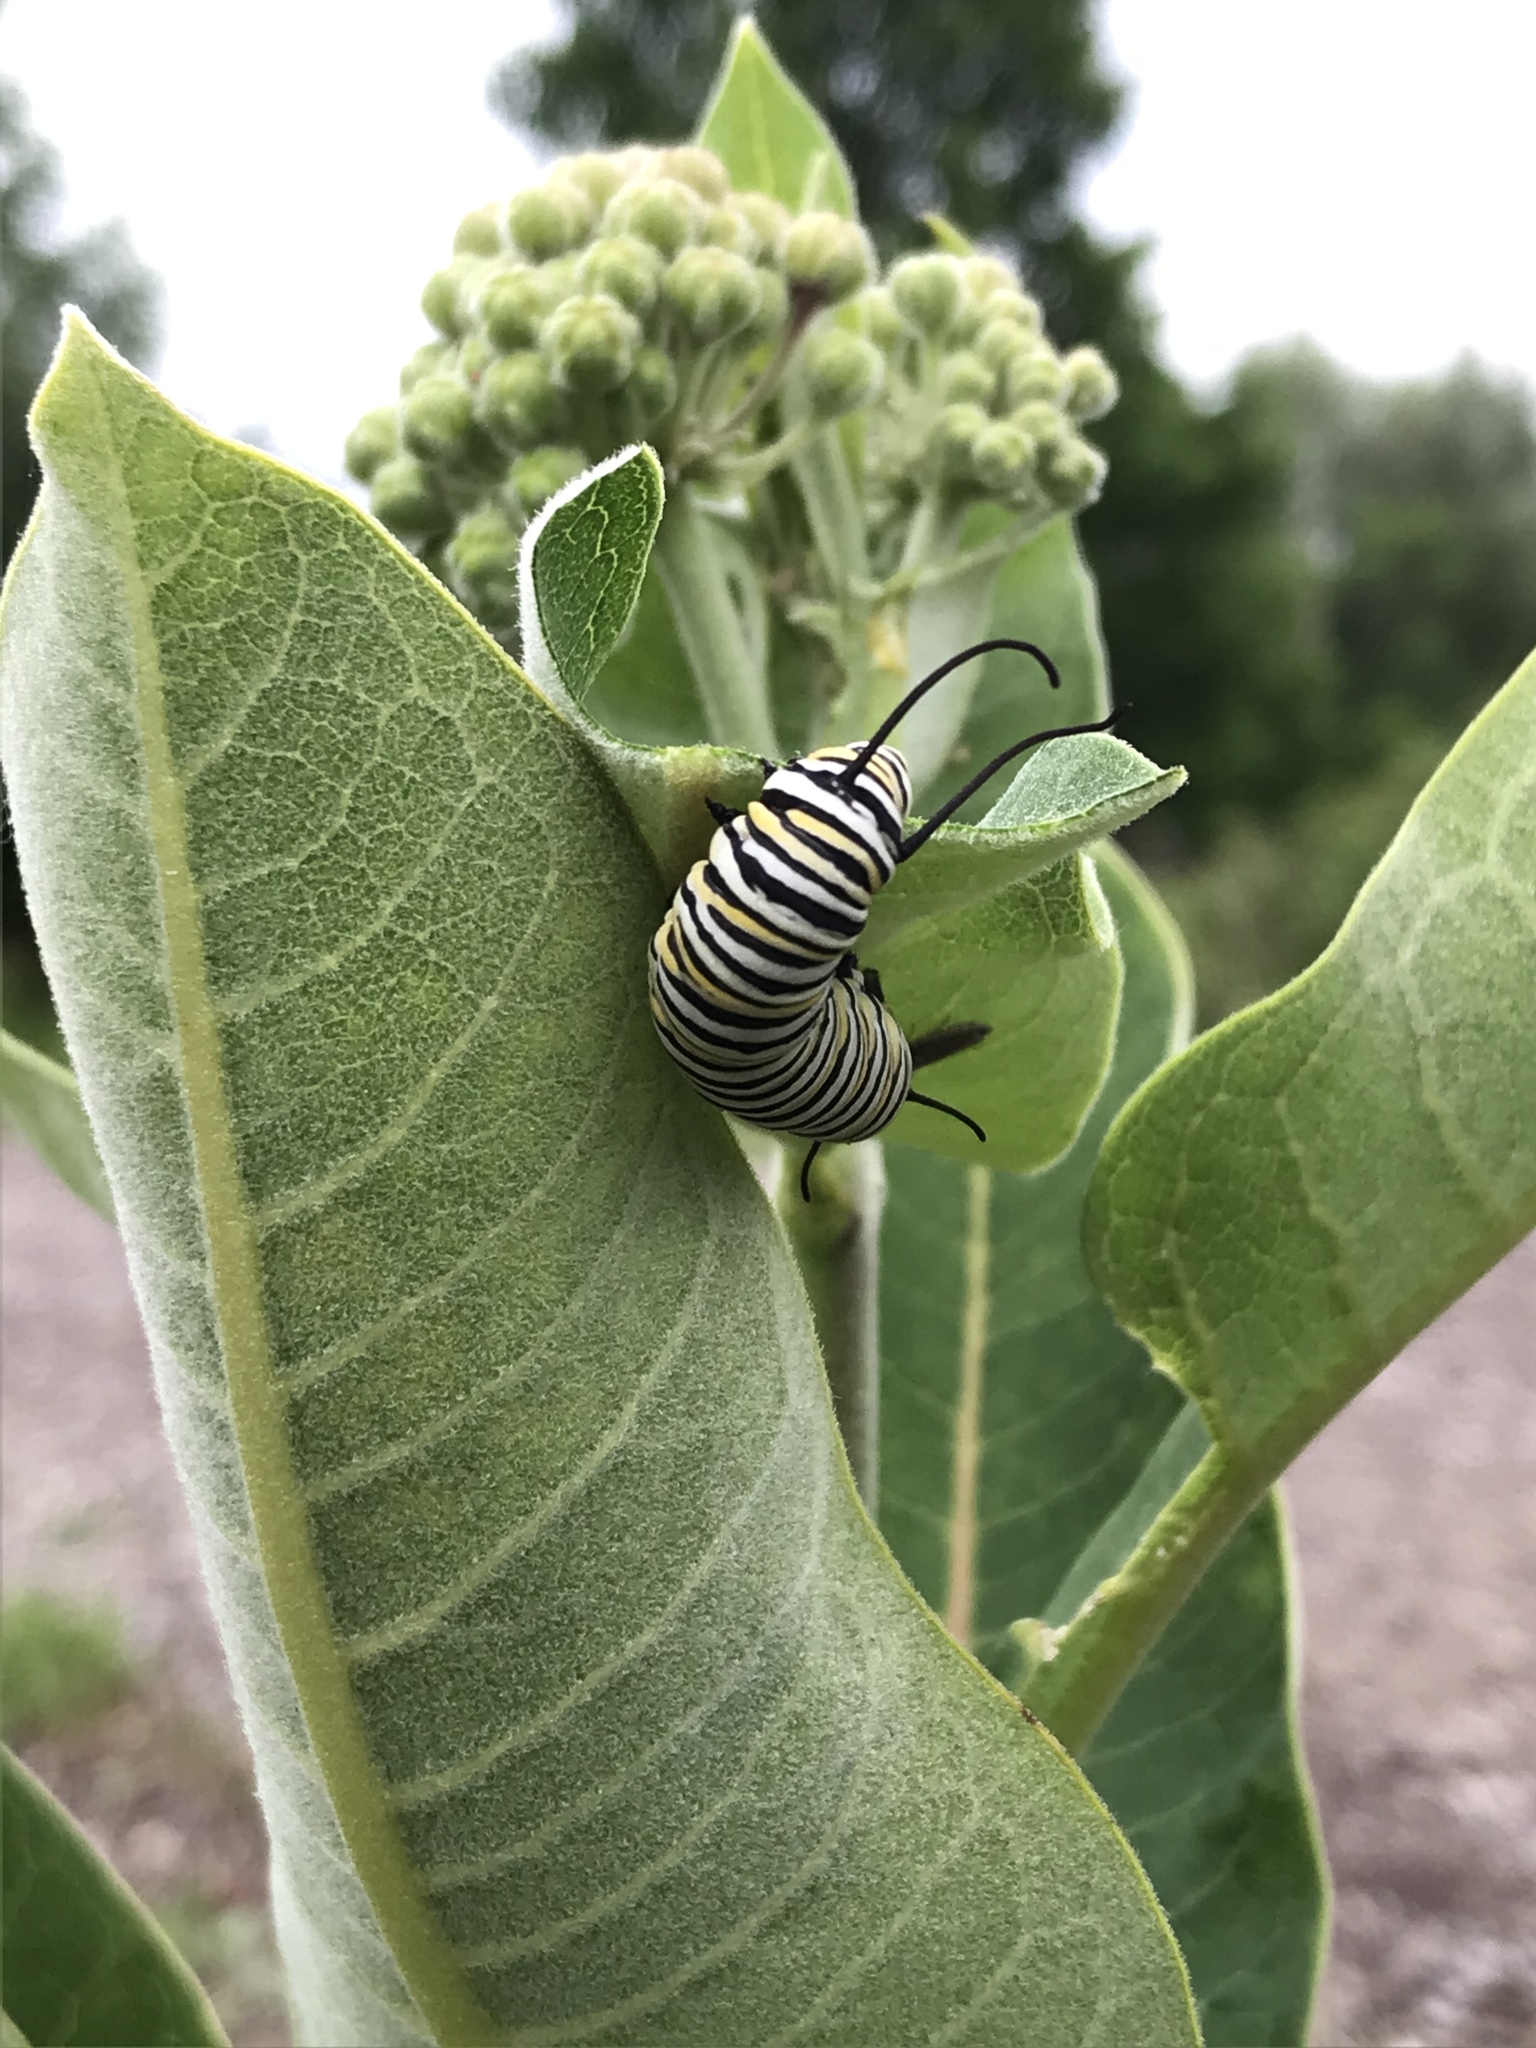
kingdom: Animalia
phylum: Arthropoda
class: Insecta
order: Lepidoptera
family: Nymphalidae
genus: Danaus
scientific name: Danaus plexippus
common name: Monarch
